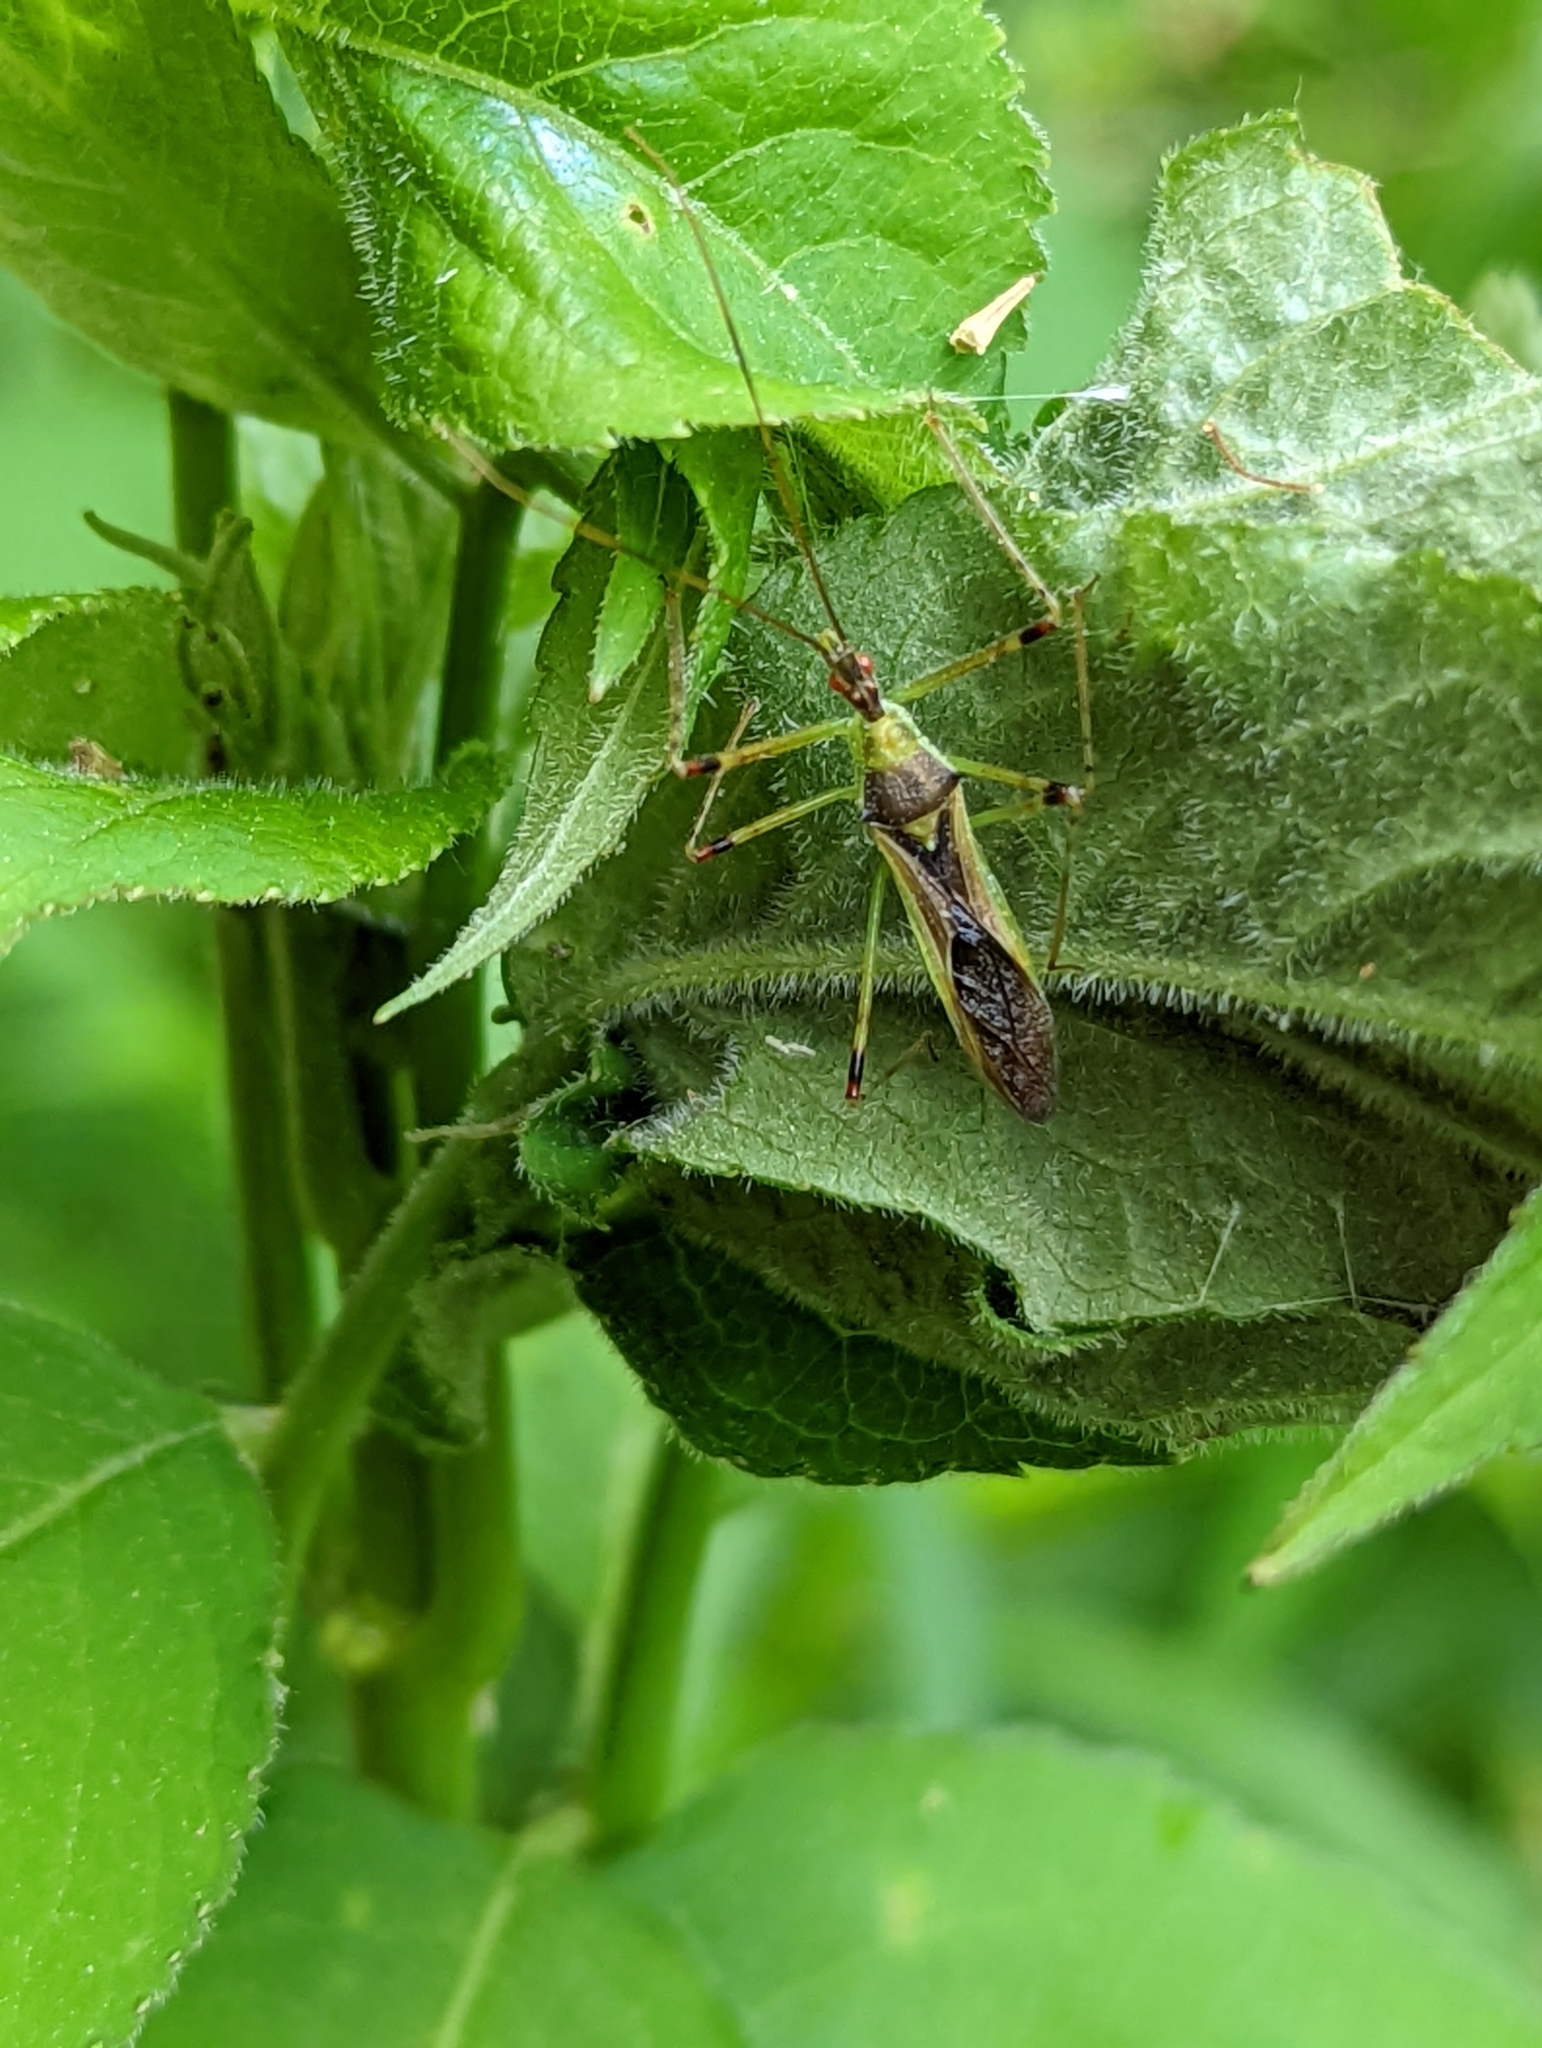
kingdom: Animalia
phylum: Arthropoda
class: Insecta
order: Hemiptera
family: Reduviidae
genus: Zelus
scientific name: Zelus luridus
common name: Pale green assassin bug
